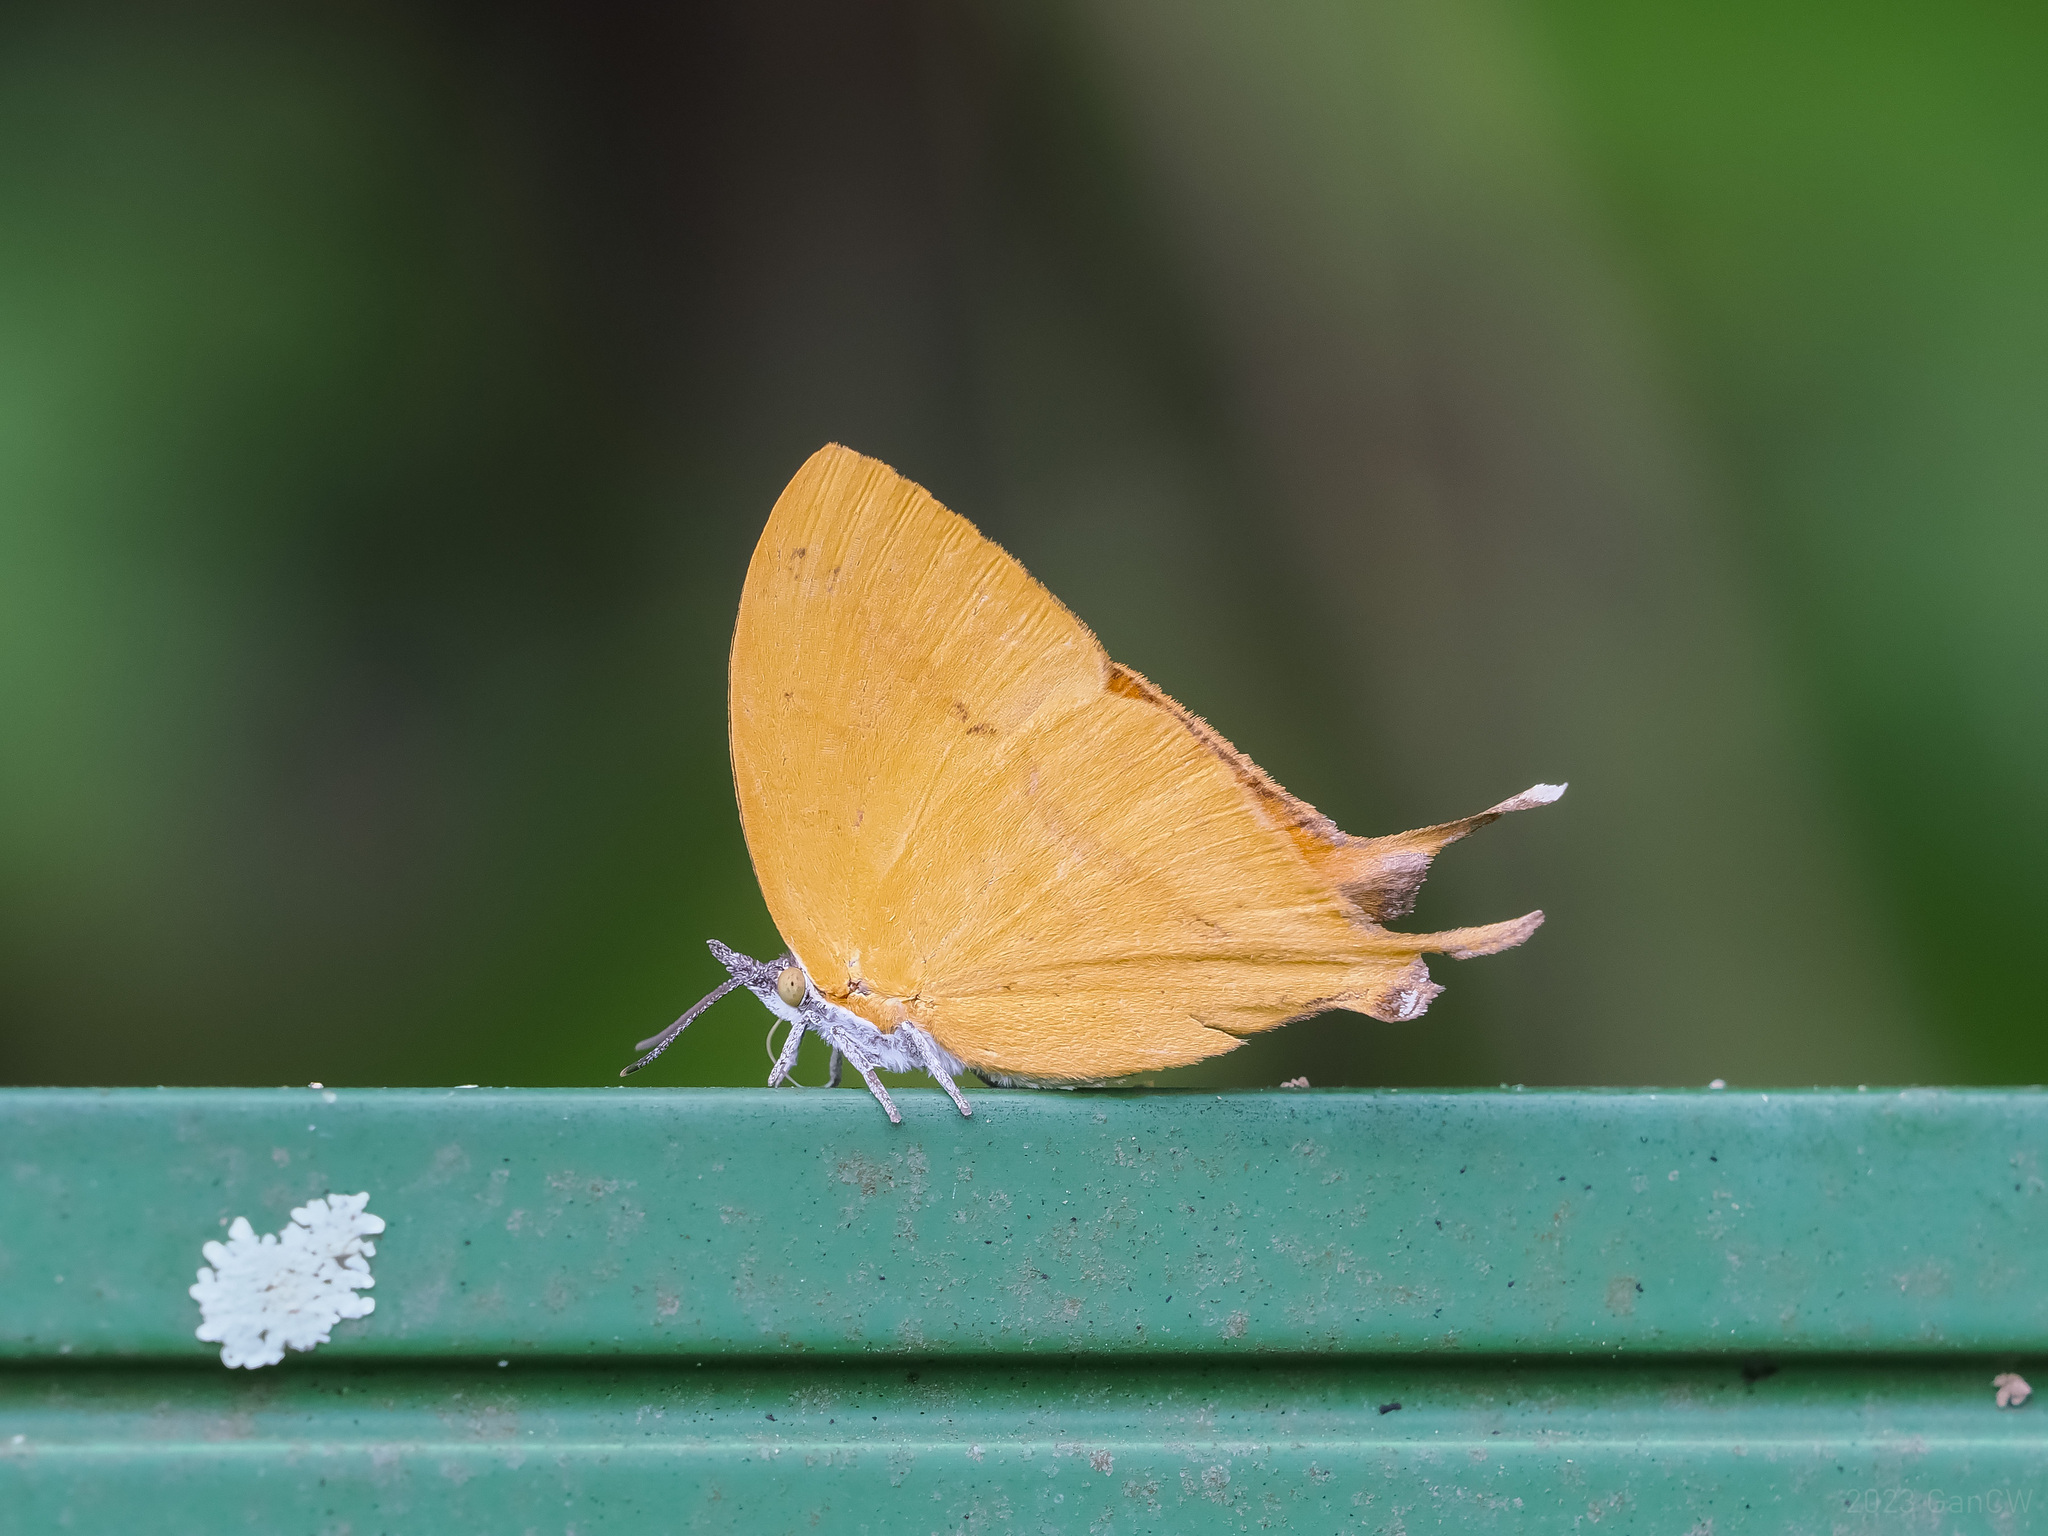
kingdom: Animalia
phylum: Arthropoda
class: Insecta
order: Lepidoptera
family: Lycaenidae
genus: Loxura
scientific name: Loxura atymnus
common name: Common yamfly
